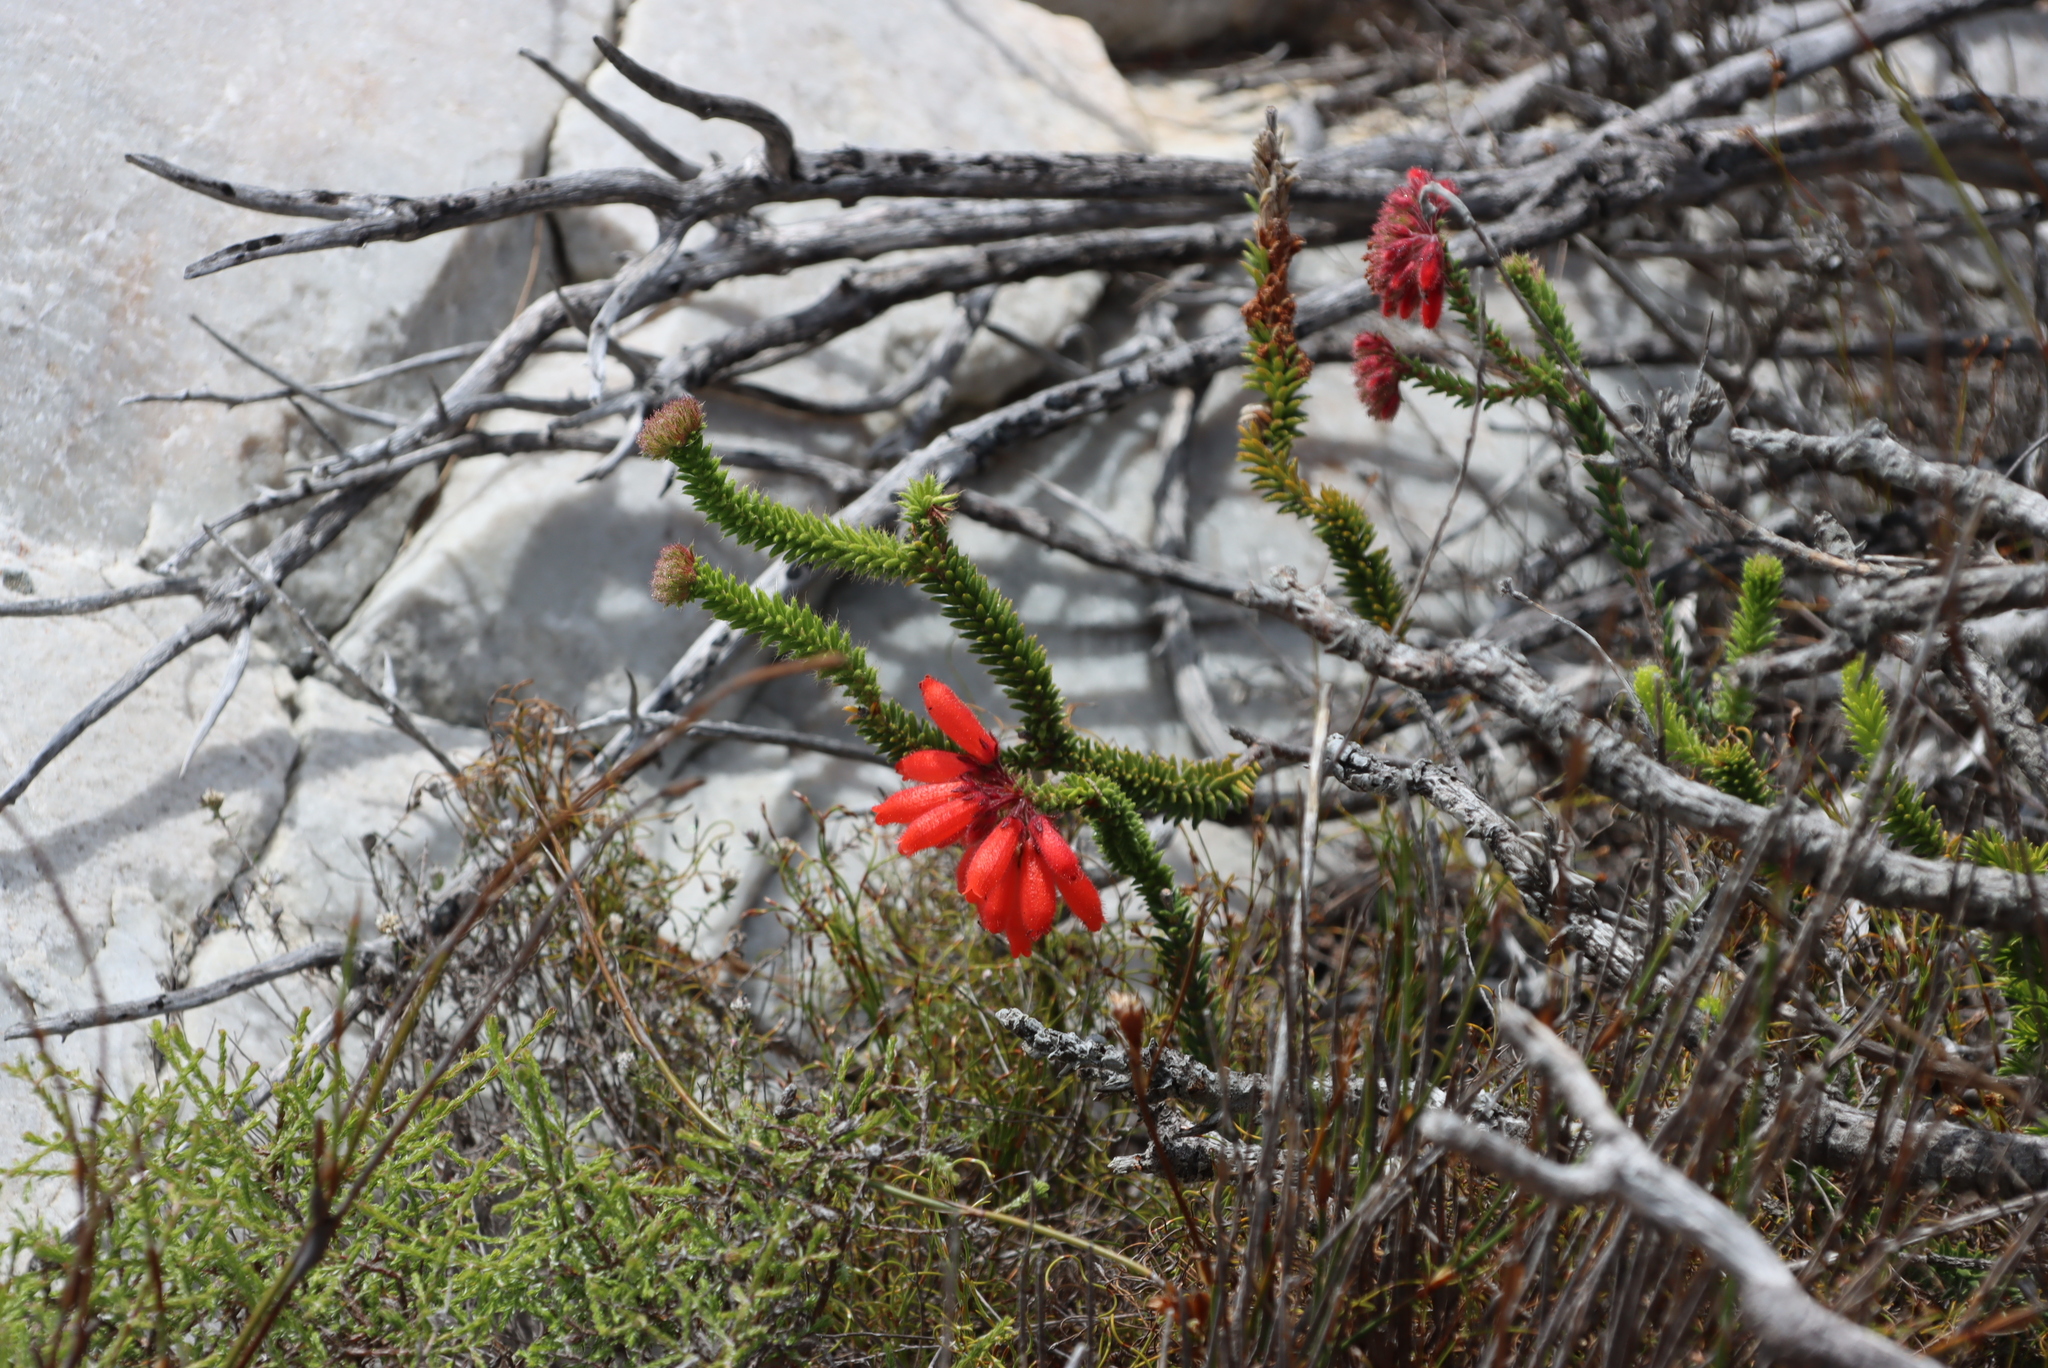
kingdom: Plantae
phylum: Tracheophyta
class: Magnoliopsida
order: Ericales
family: Ericaceae
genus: Erica
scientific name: Erica cerinthoides
